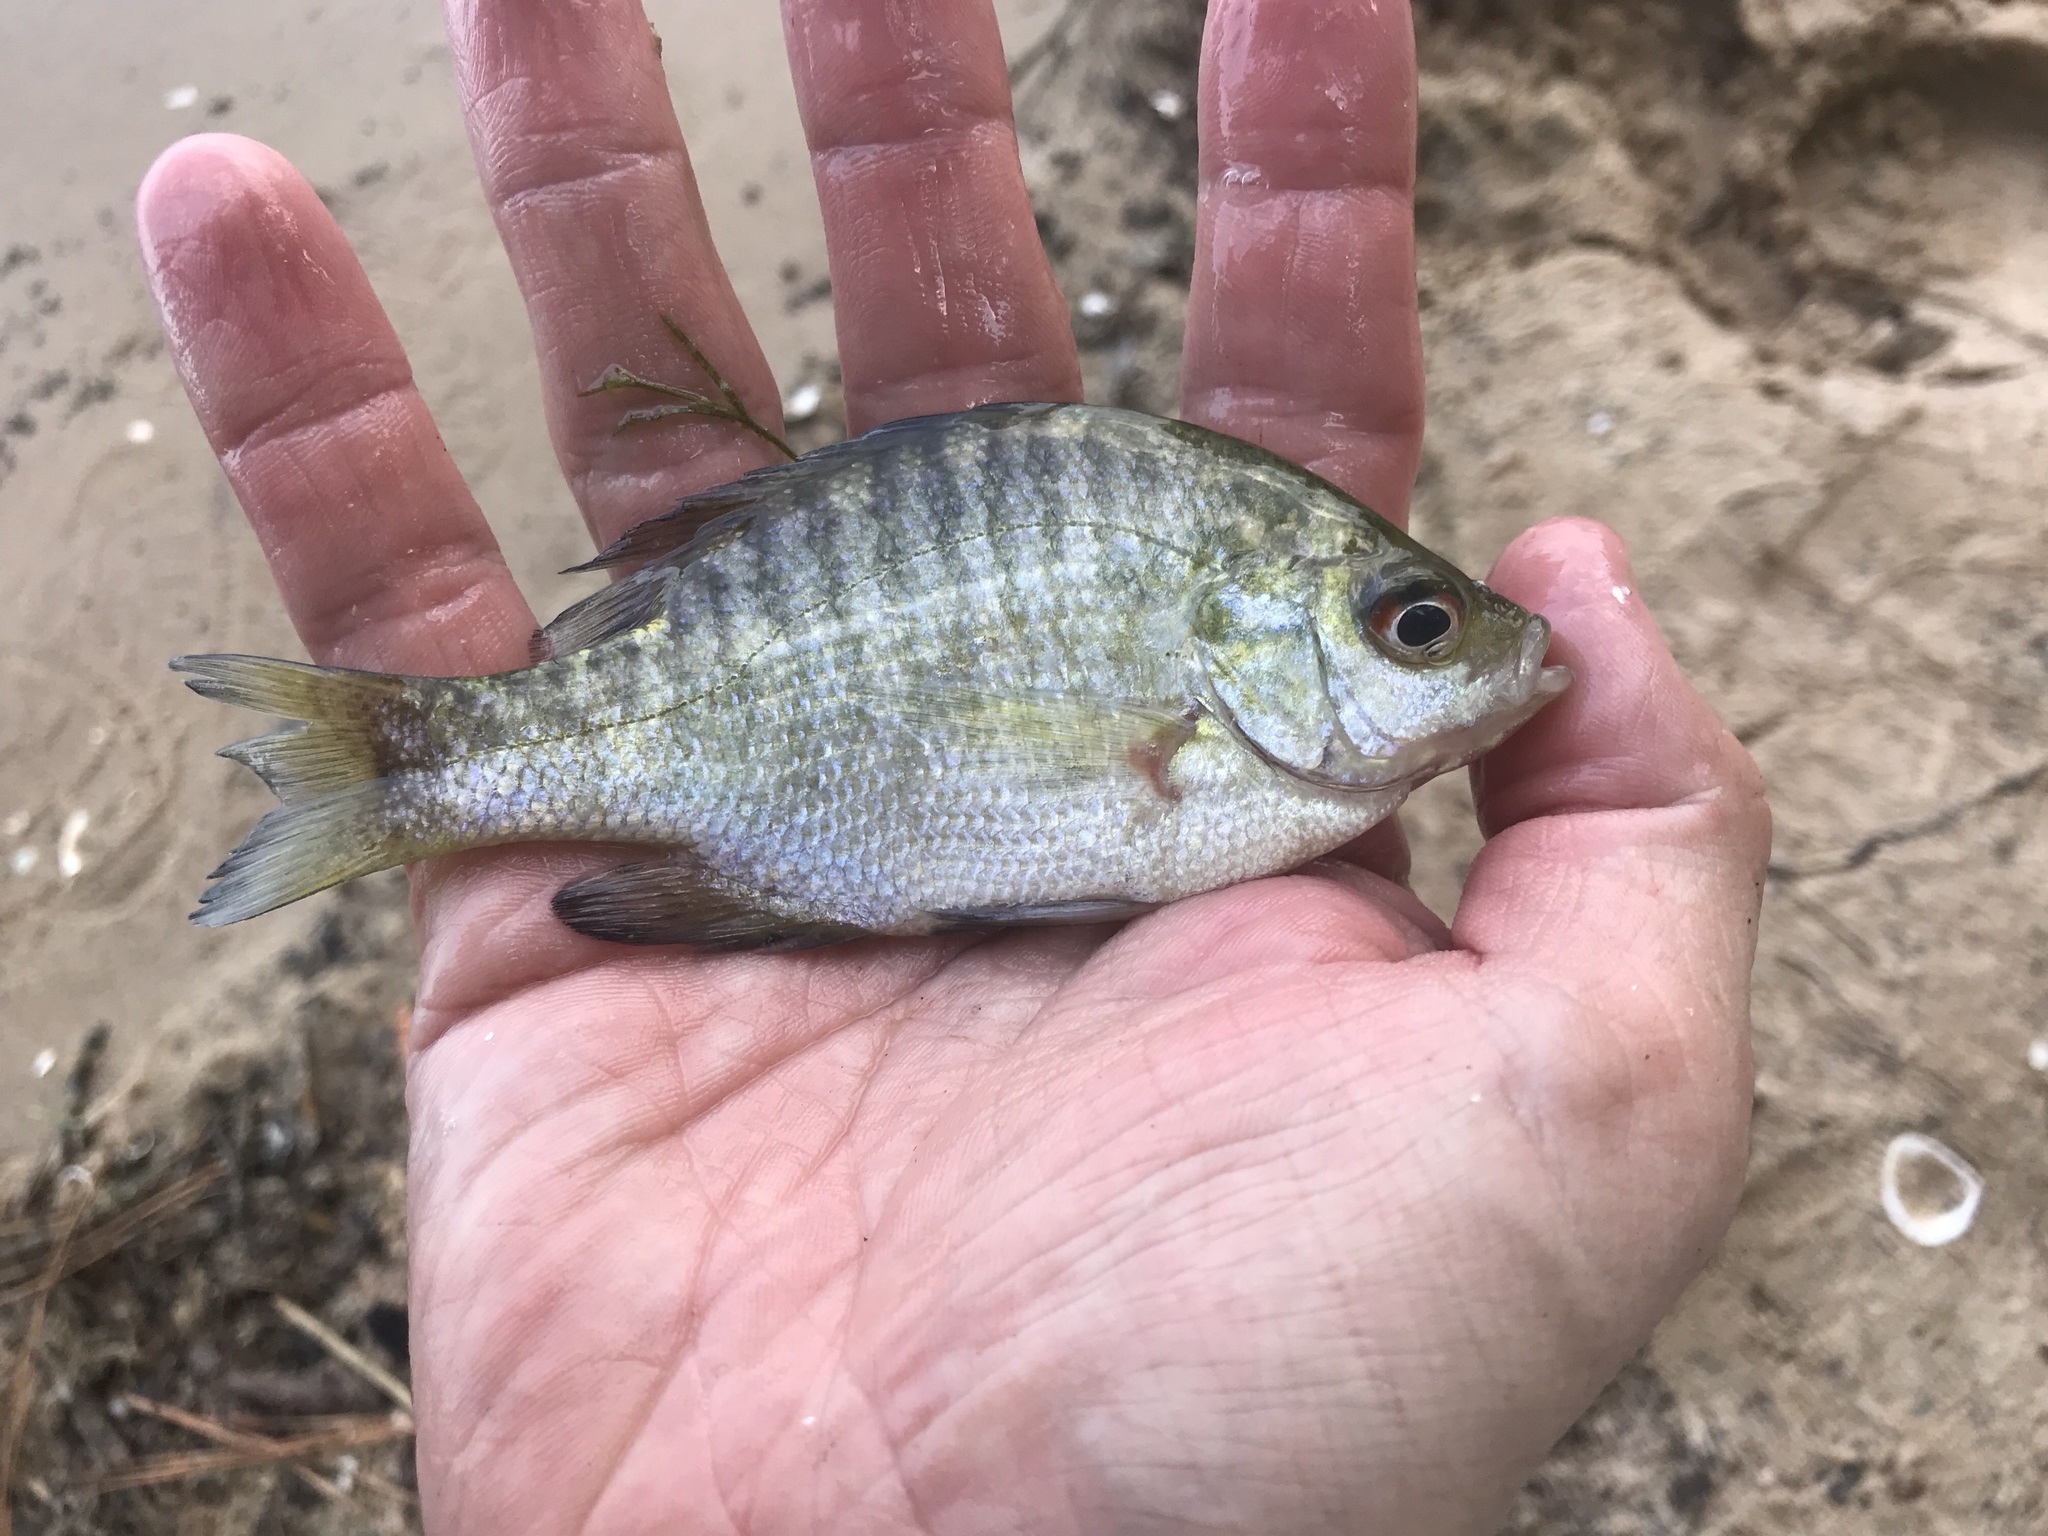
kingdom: Animalia
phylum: Chordata
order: Perciformes
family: Centrarchidae
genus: Lepomis
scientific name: Lepomis macrochirus
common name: Bluegill
